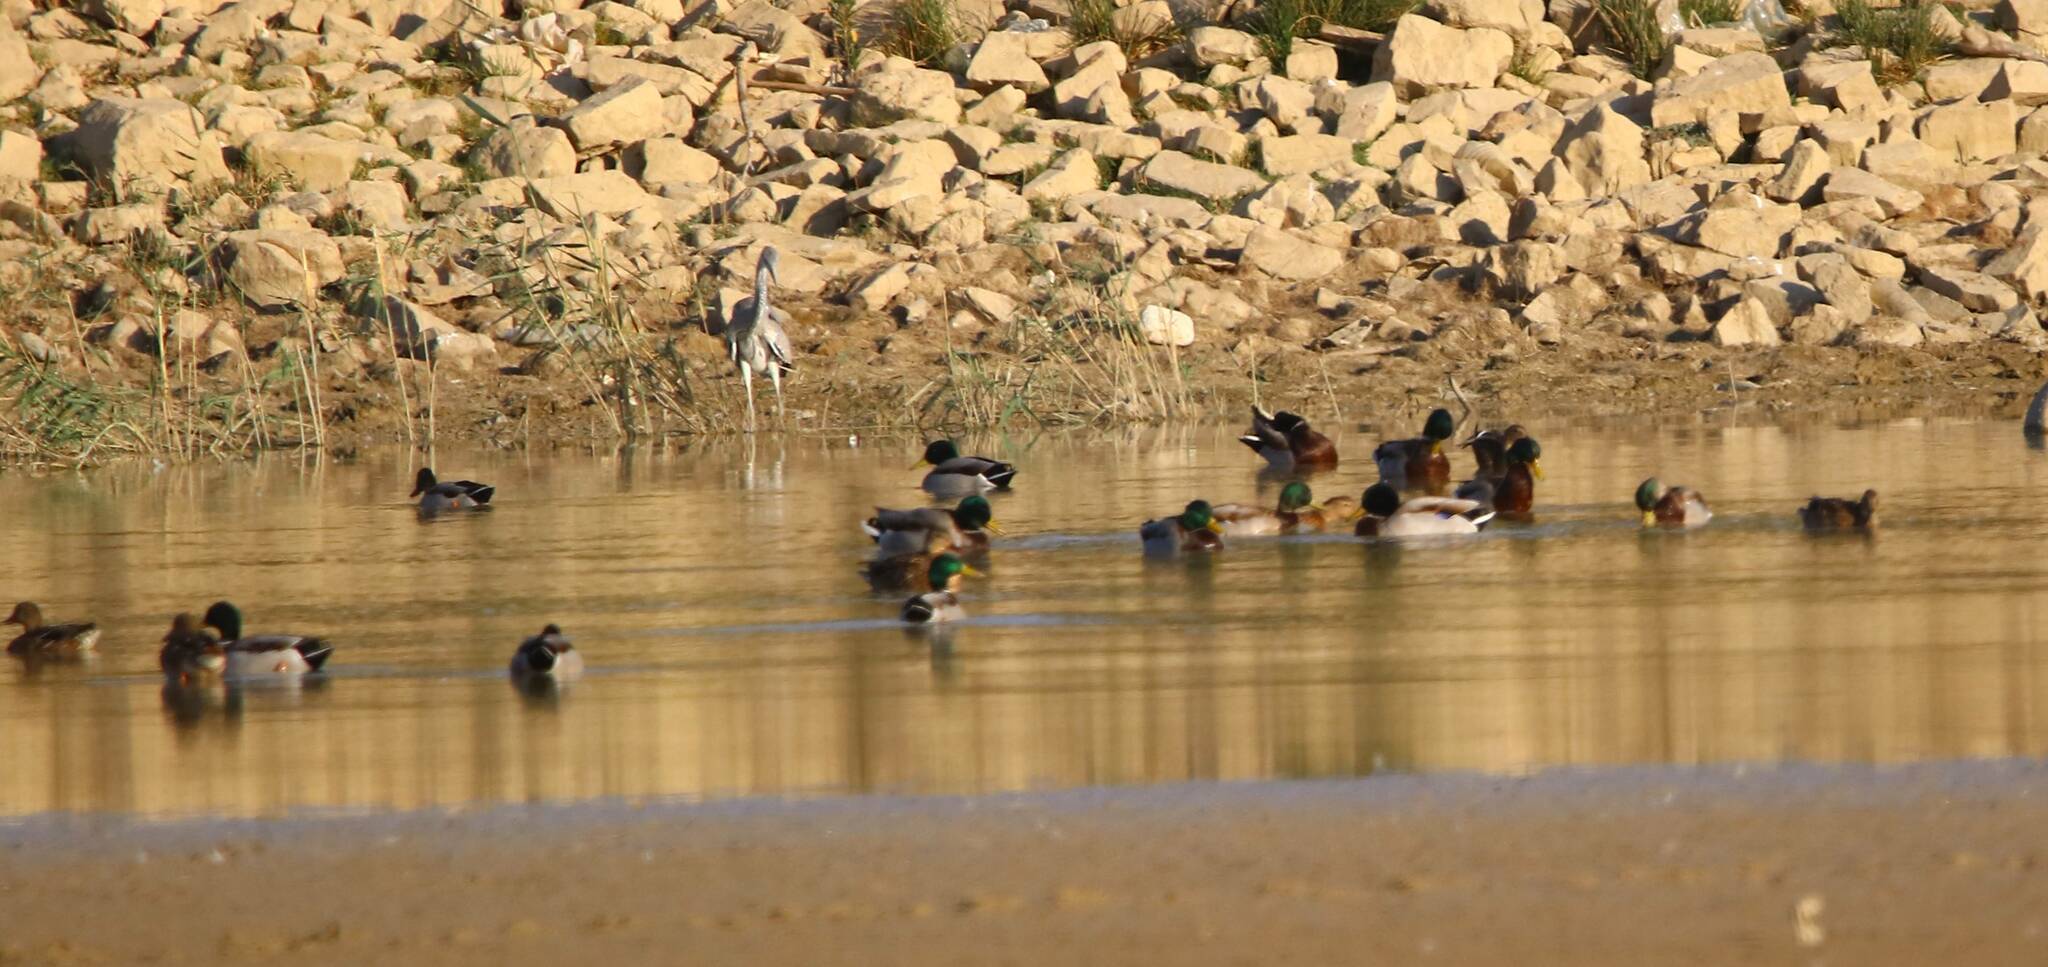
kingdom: Animalia
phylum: Chordata
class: Aves
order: Anseriformes
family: Anatidae
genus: Anas
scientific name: Anas platyrhynchos
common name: Mallard
